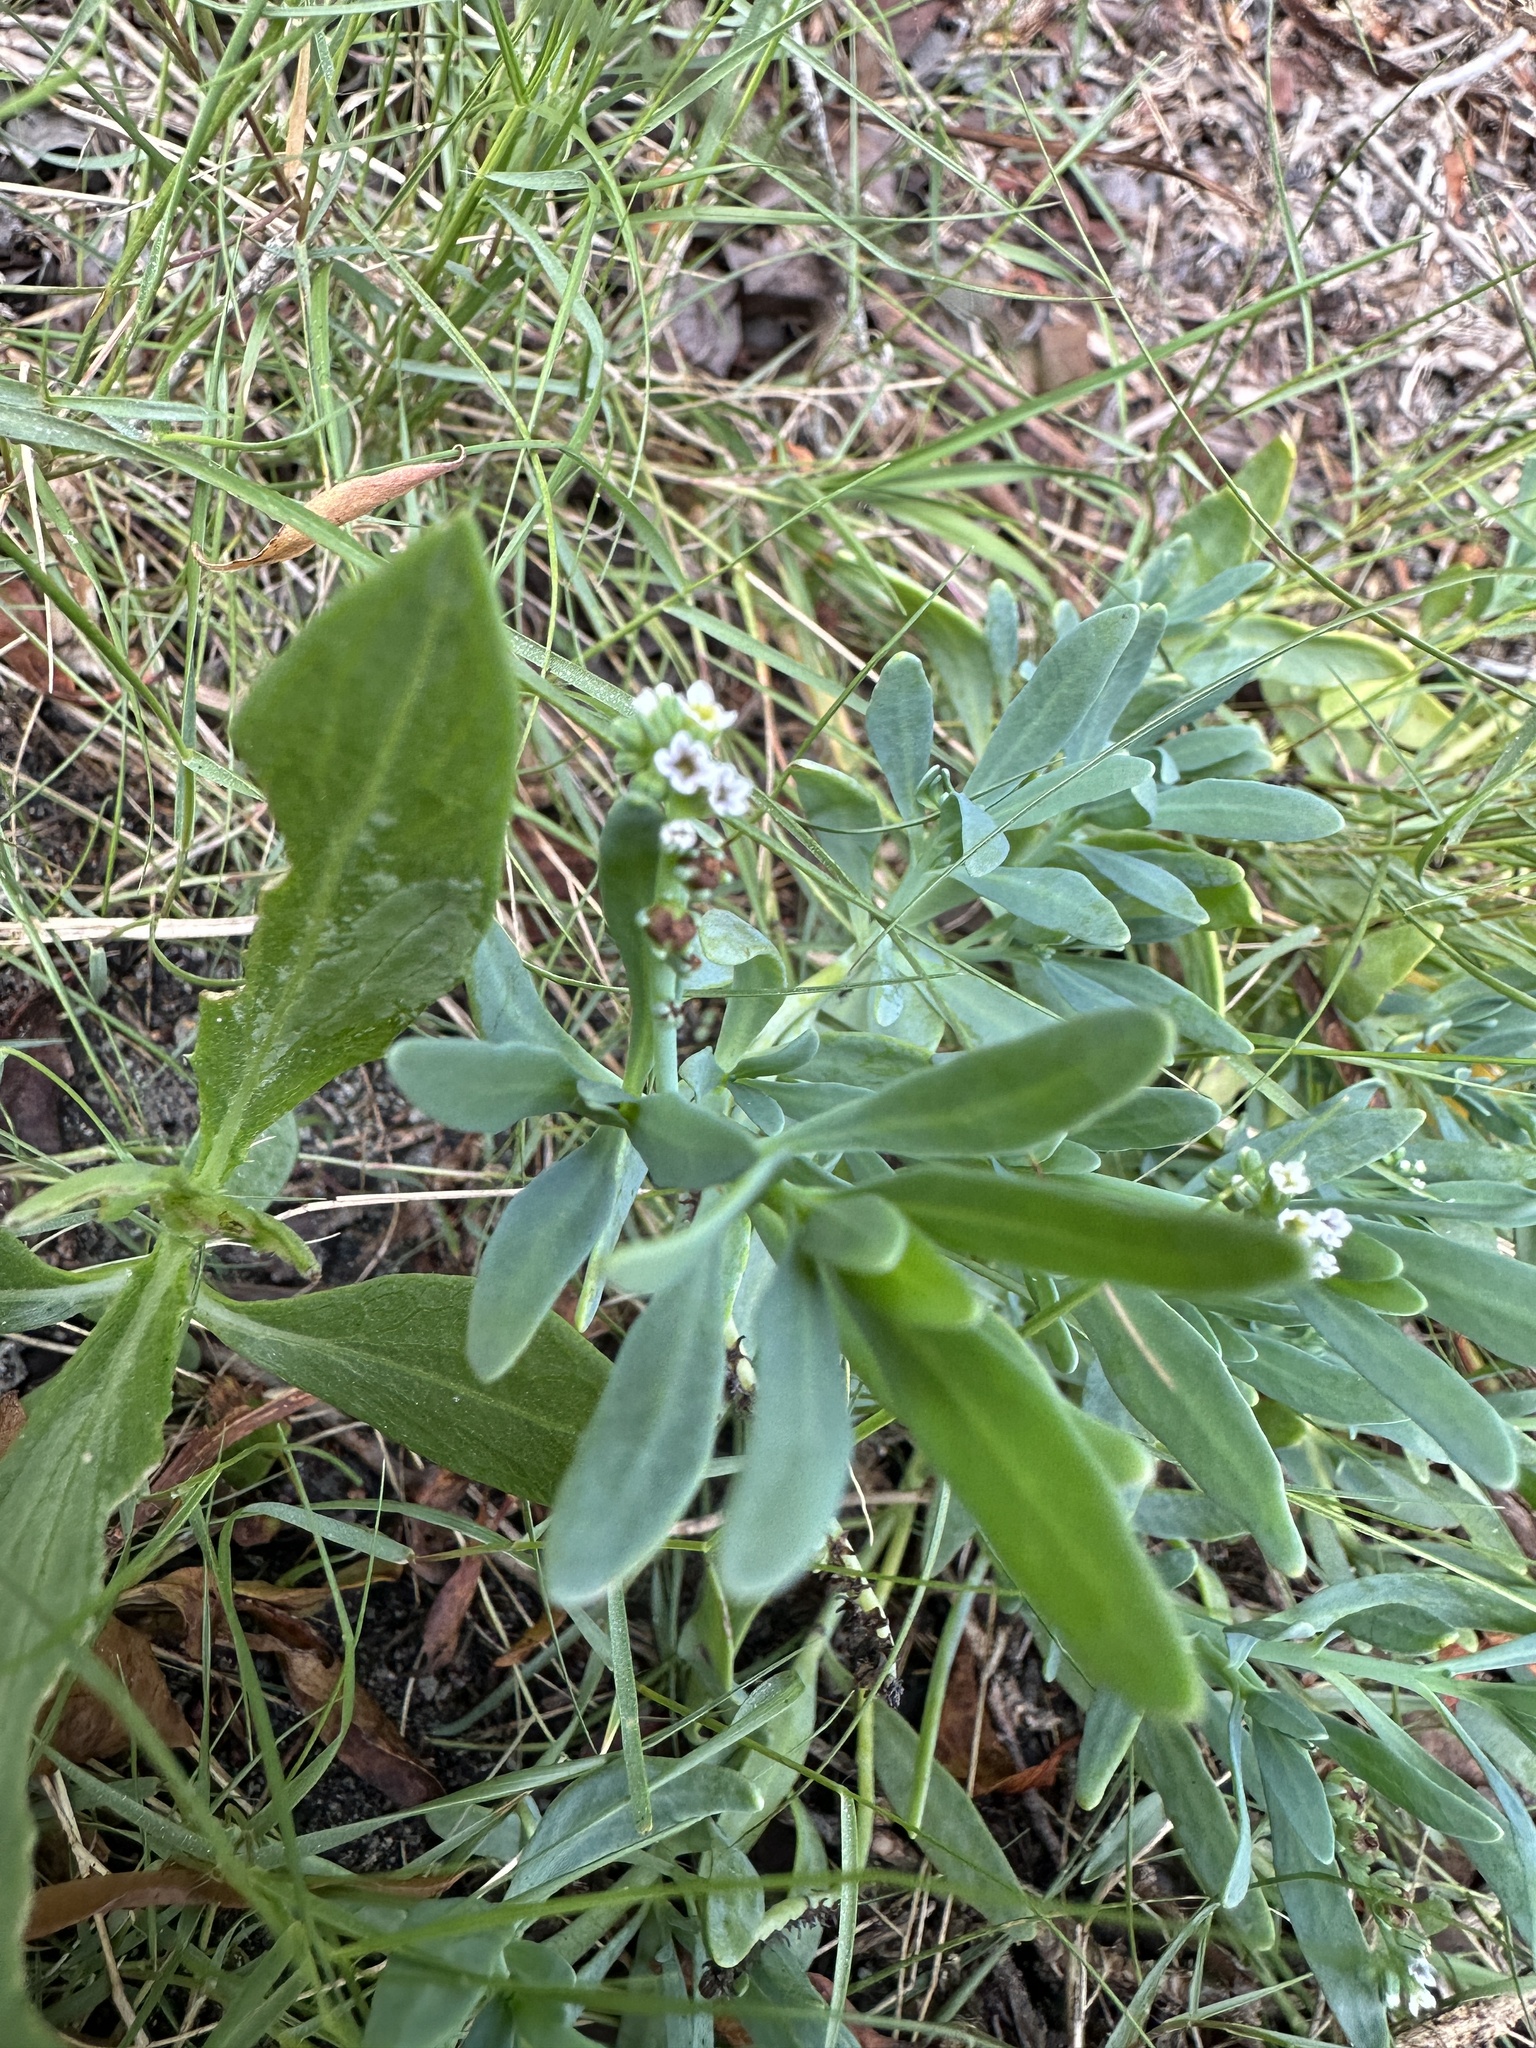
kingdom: Plantae
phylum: Tracheophyta
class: Magnoliopsida
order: Boraginales
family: Heliotropiaceae
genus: Heliotropium
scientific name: Heliotropium curassavicum
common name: Seaside heliotrope
